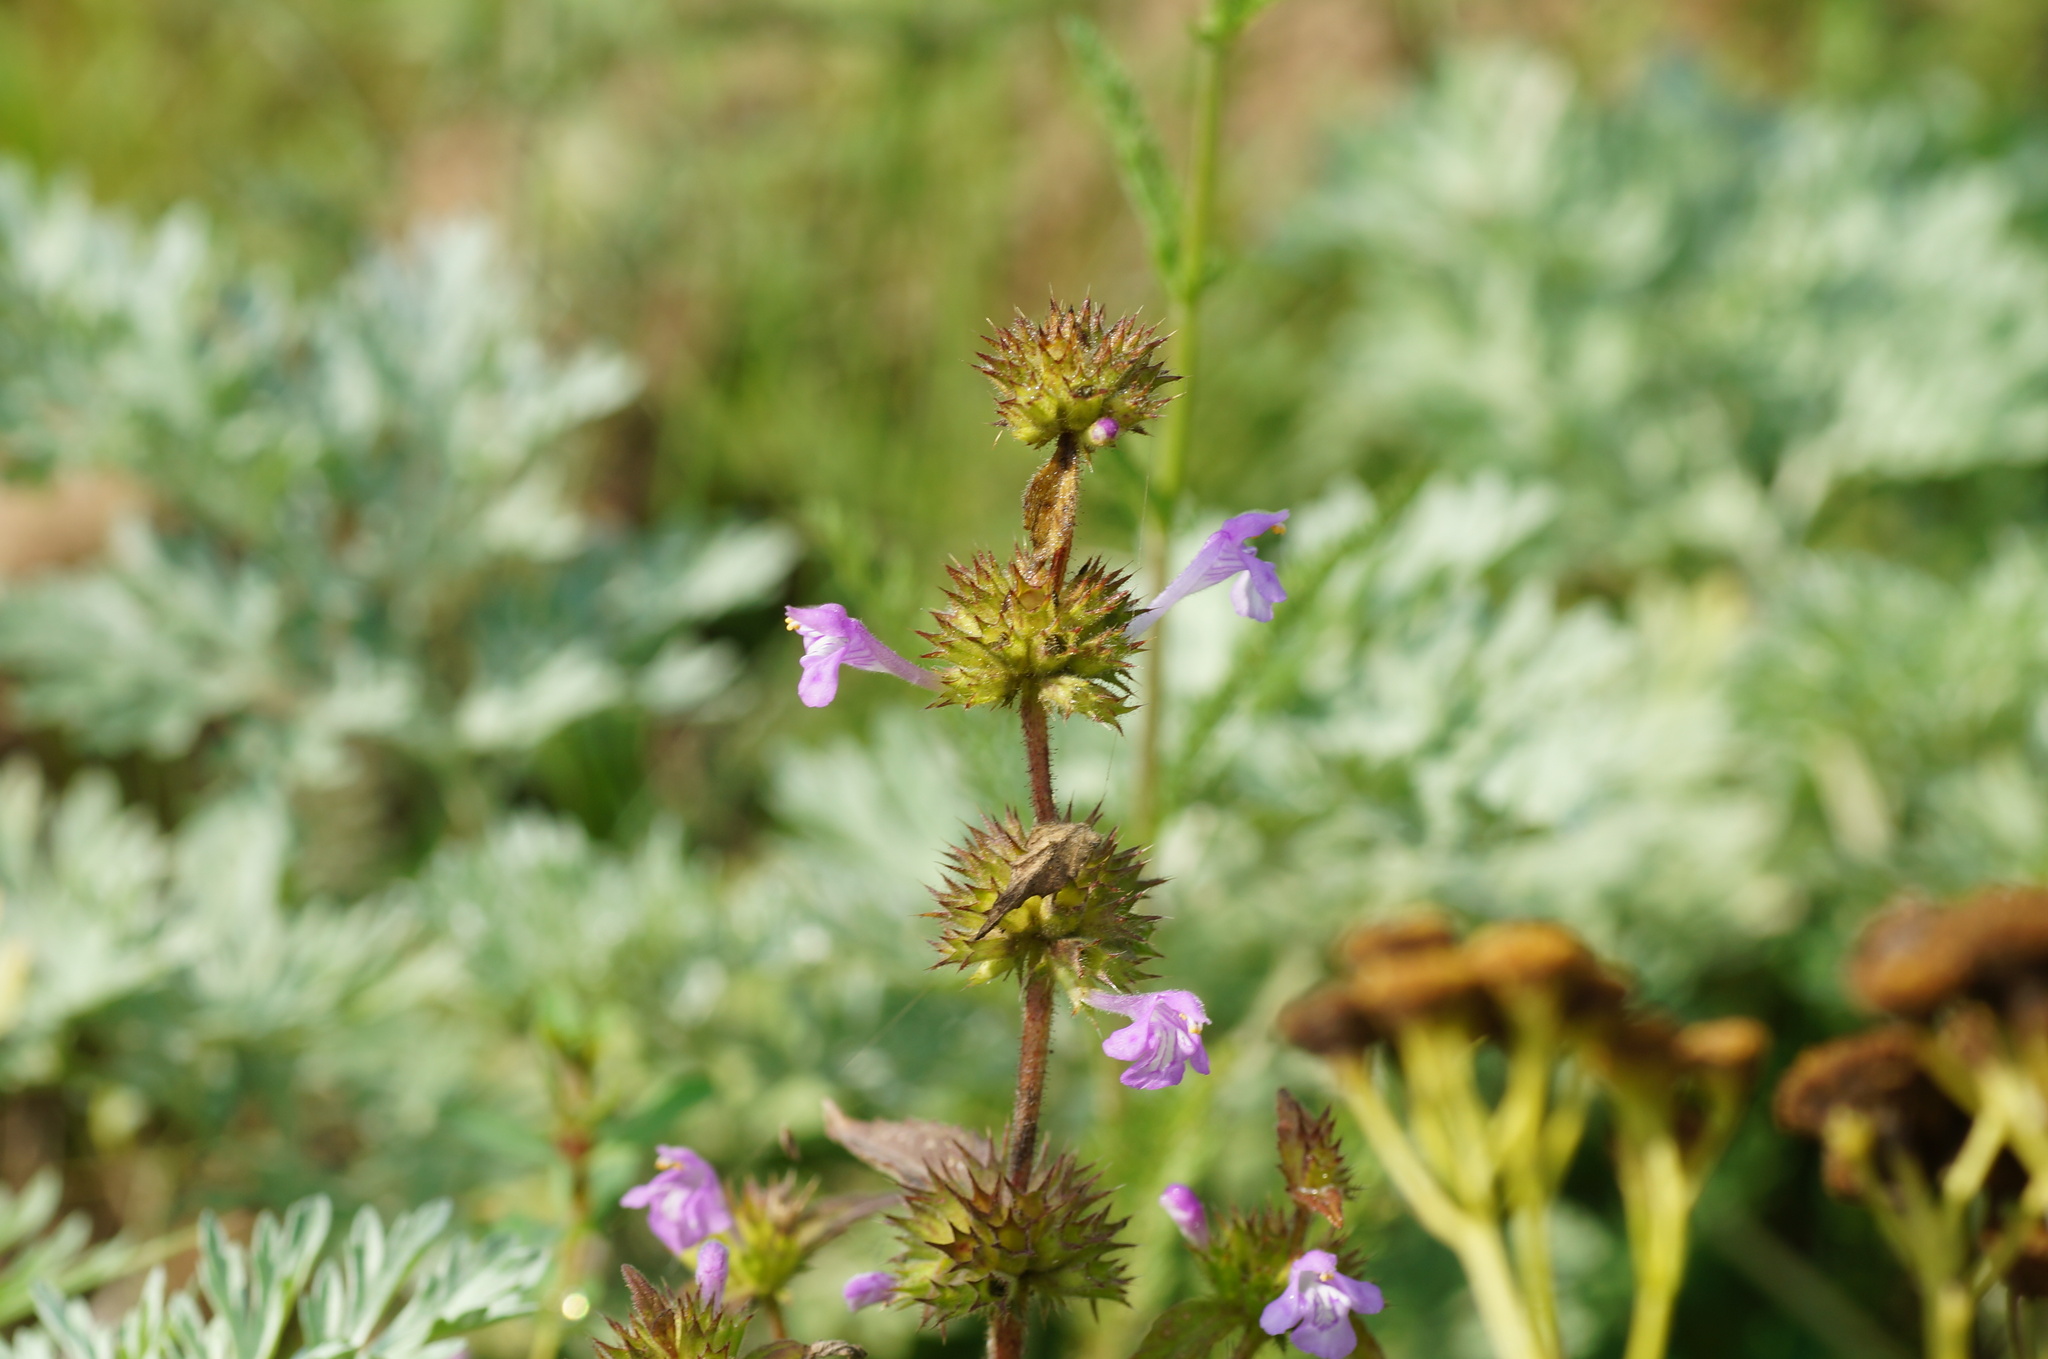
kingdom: Plantae
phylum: Tracheophyta
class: Magnoliopsida
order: Lamiales
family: Lamiaceae
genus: Galeopsis
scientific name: Galeopsis ladanum
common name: Broad-leaved hemp-nettle
